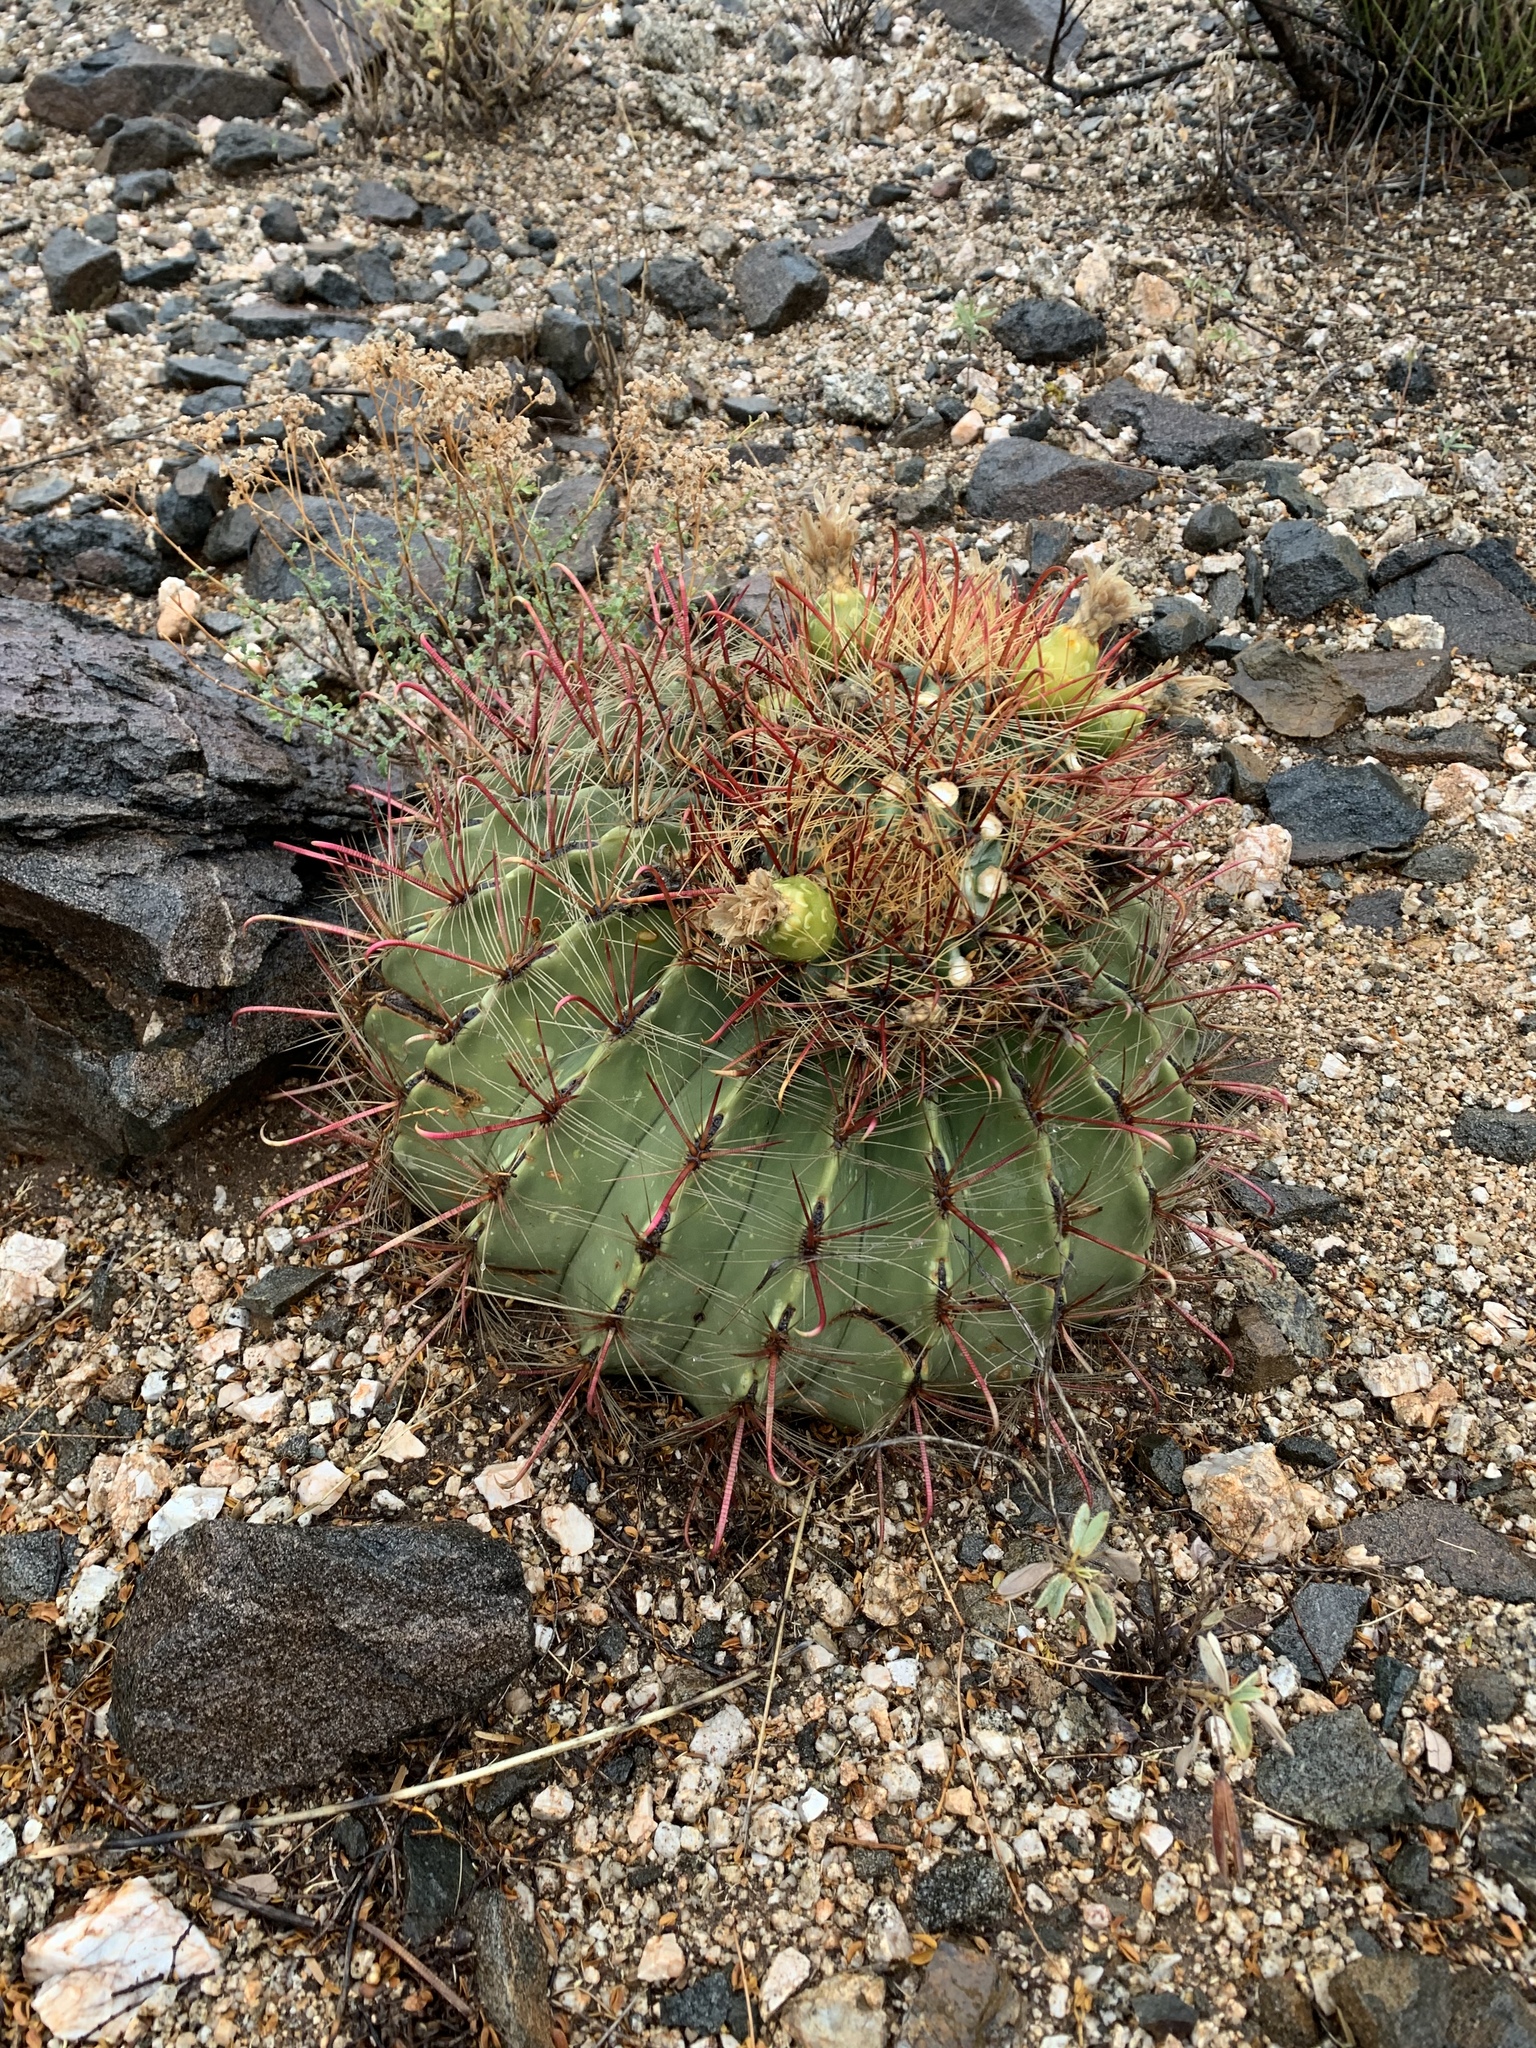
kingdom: Plantae
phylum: Tracheophyta
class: Magnoliopsida
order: Caryophyllales
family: Cactaceae
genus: Ferocactus
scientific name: Ferocactus wislizeni
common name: Candy barrel cactus
